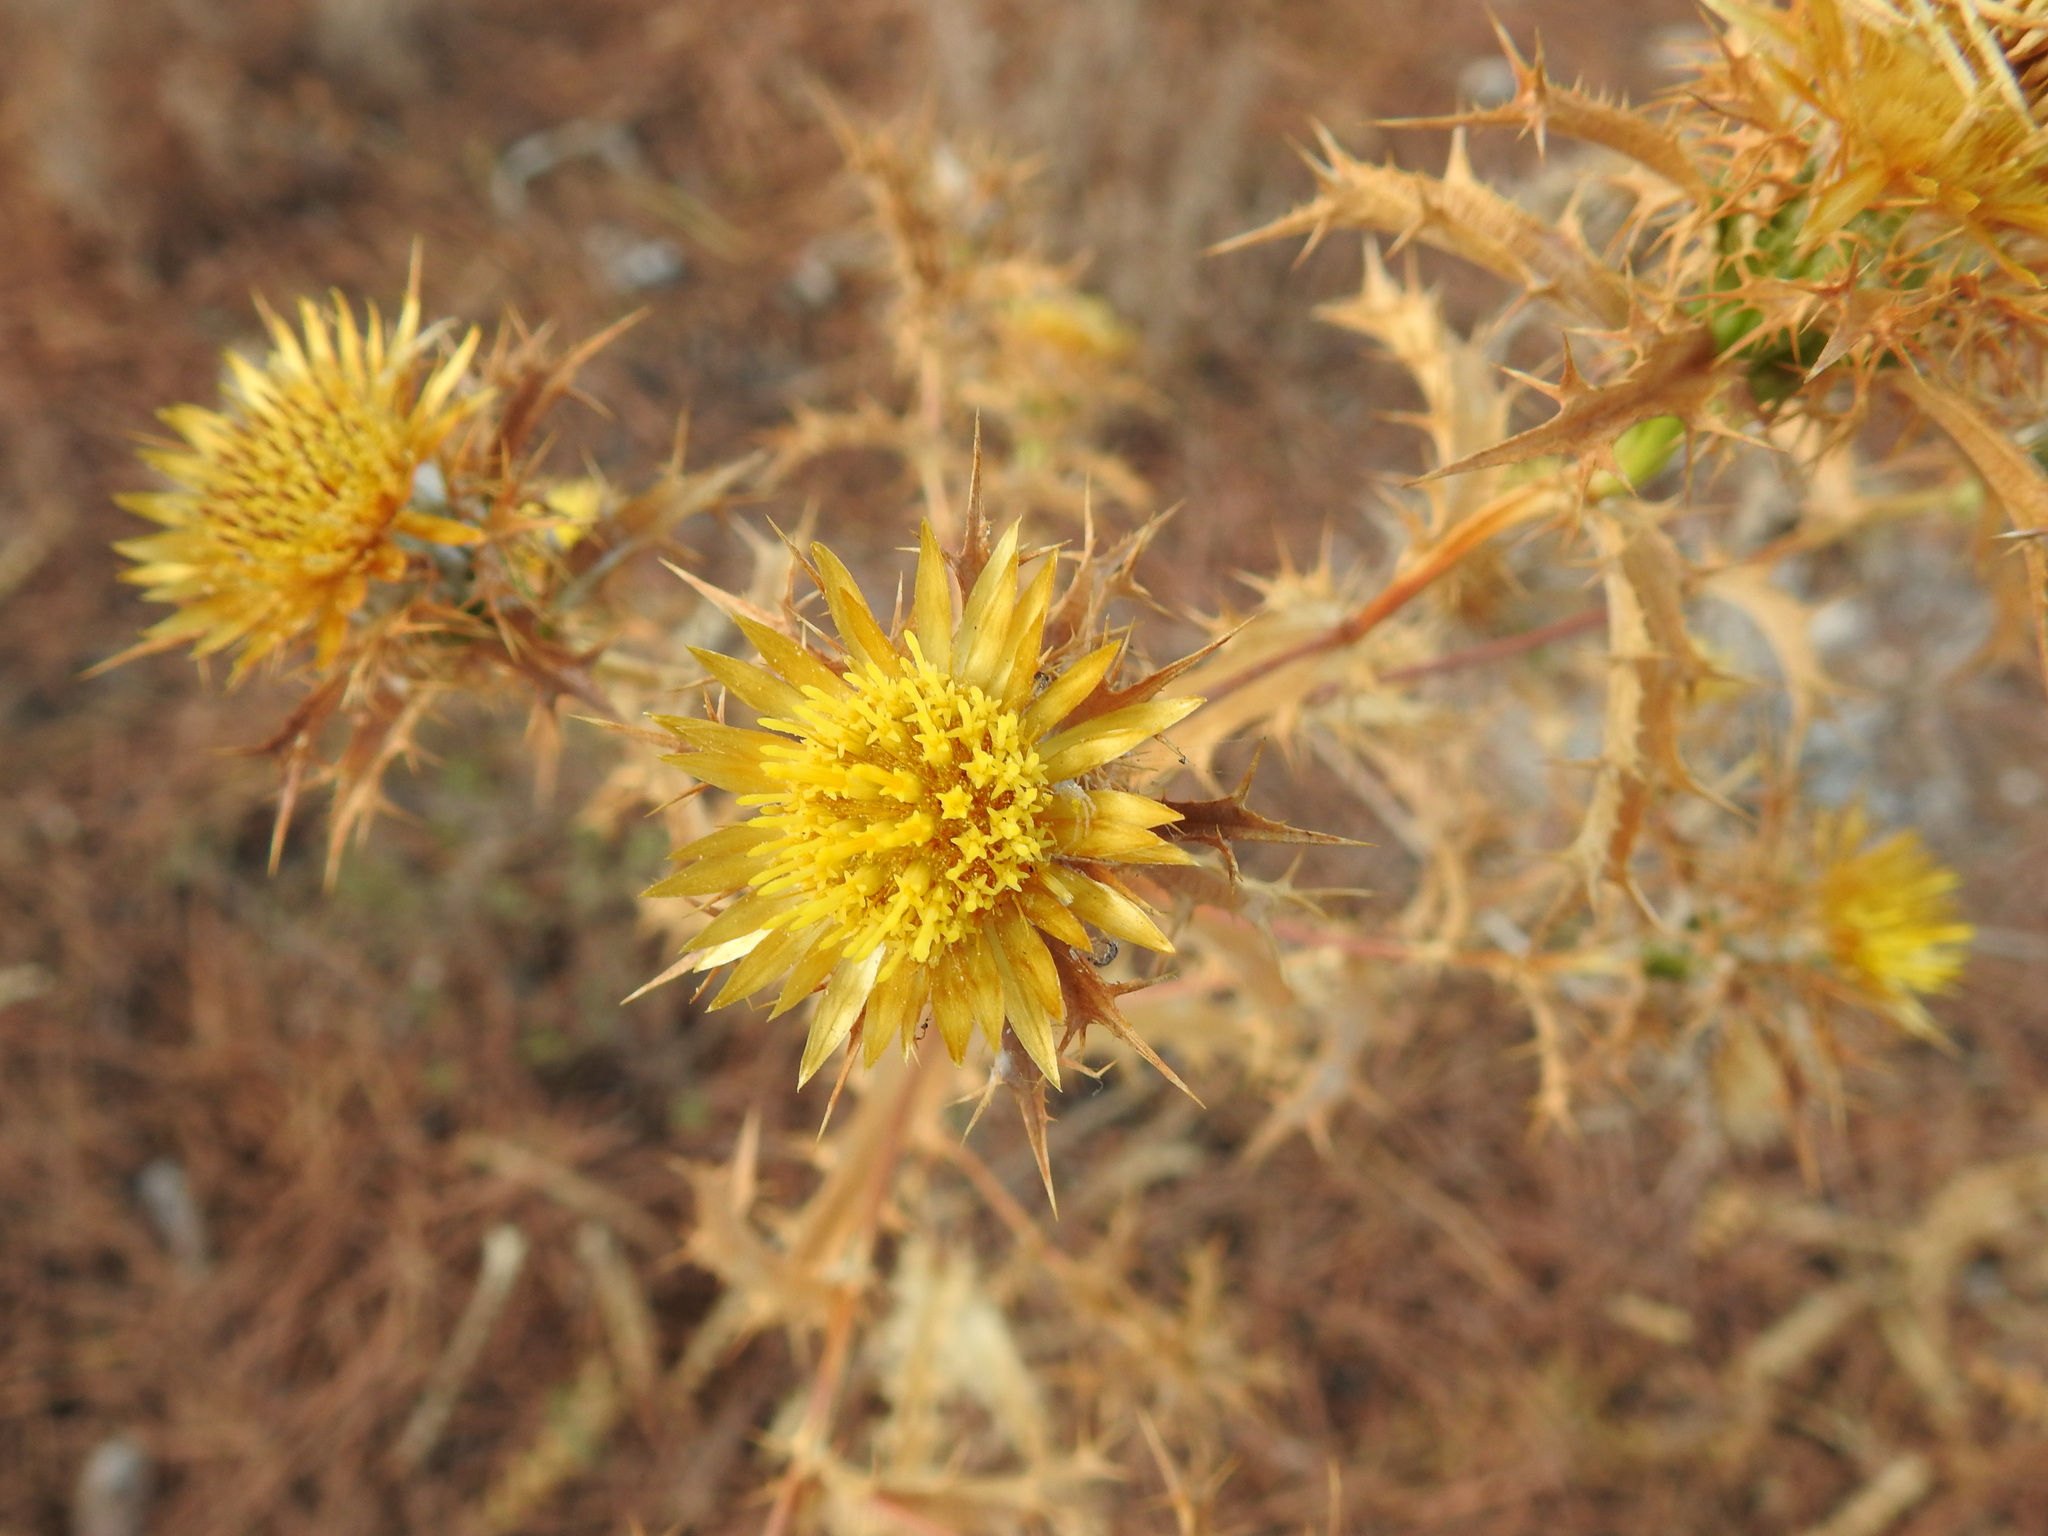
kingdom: Plantae
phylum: Tracheophyta
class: Magnoliopsida
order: Asterales
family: Asteraceae
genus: Carlina
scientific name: Carlina hispanica
